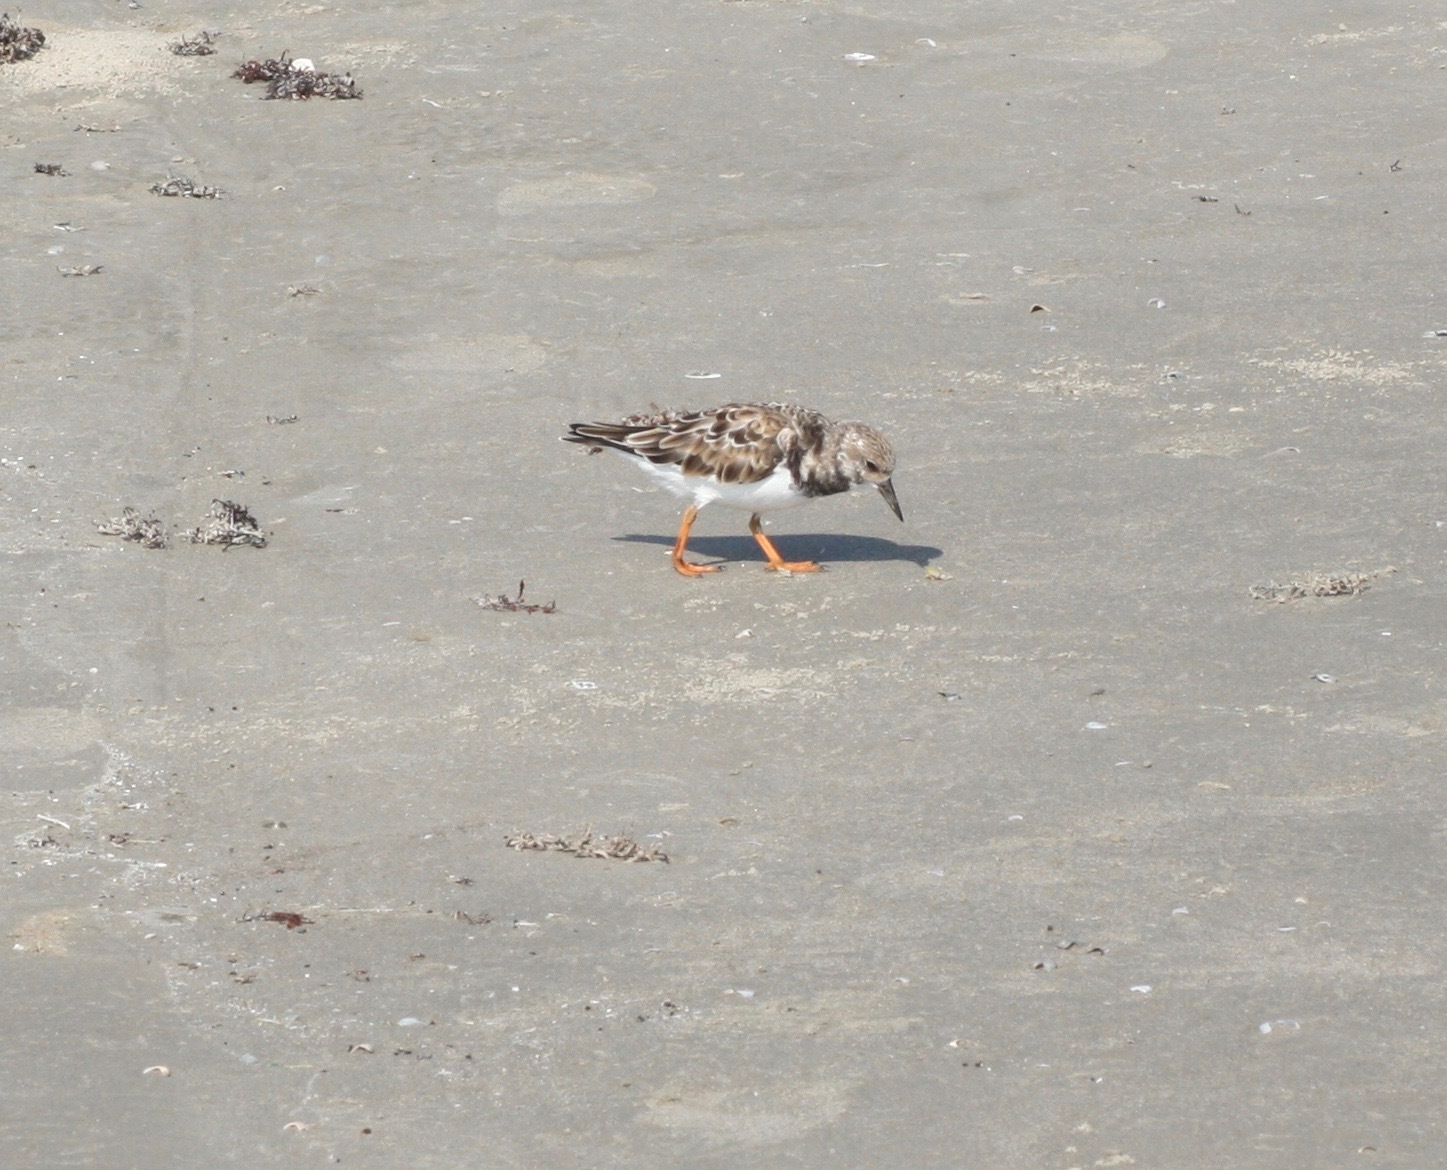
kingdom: Animalia
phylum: Chordata
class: Aves
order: Charadriiformes
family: Scolopacidae
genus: Arenaria
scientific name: Arenaria interpres
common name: Ruddy turnstone
